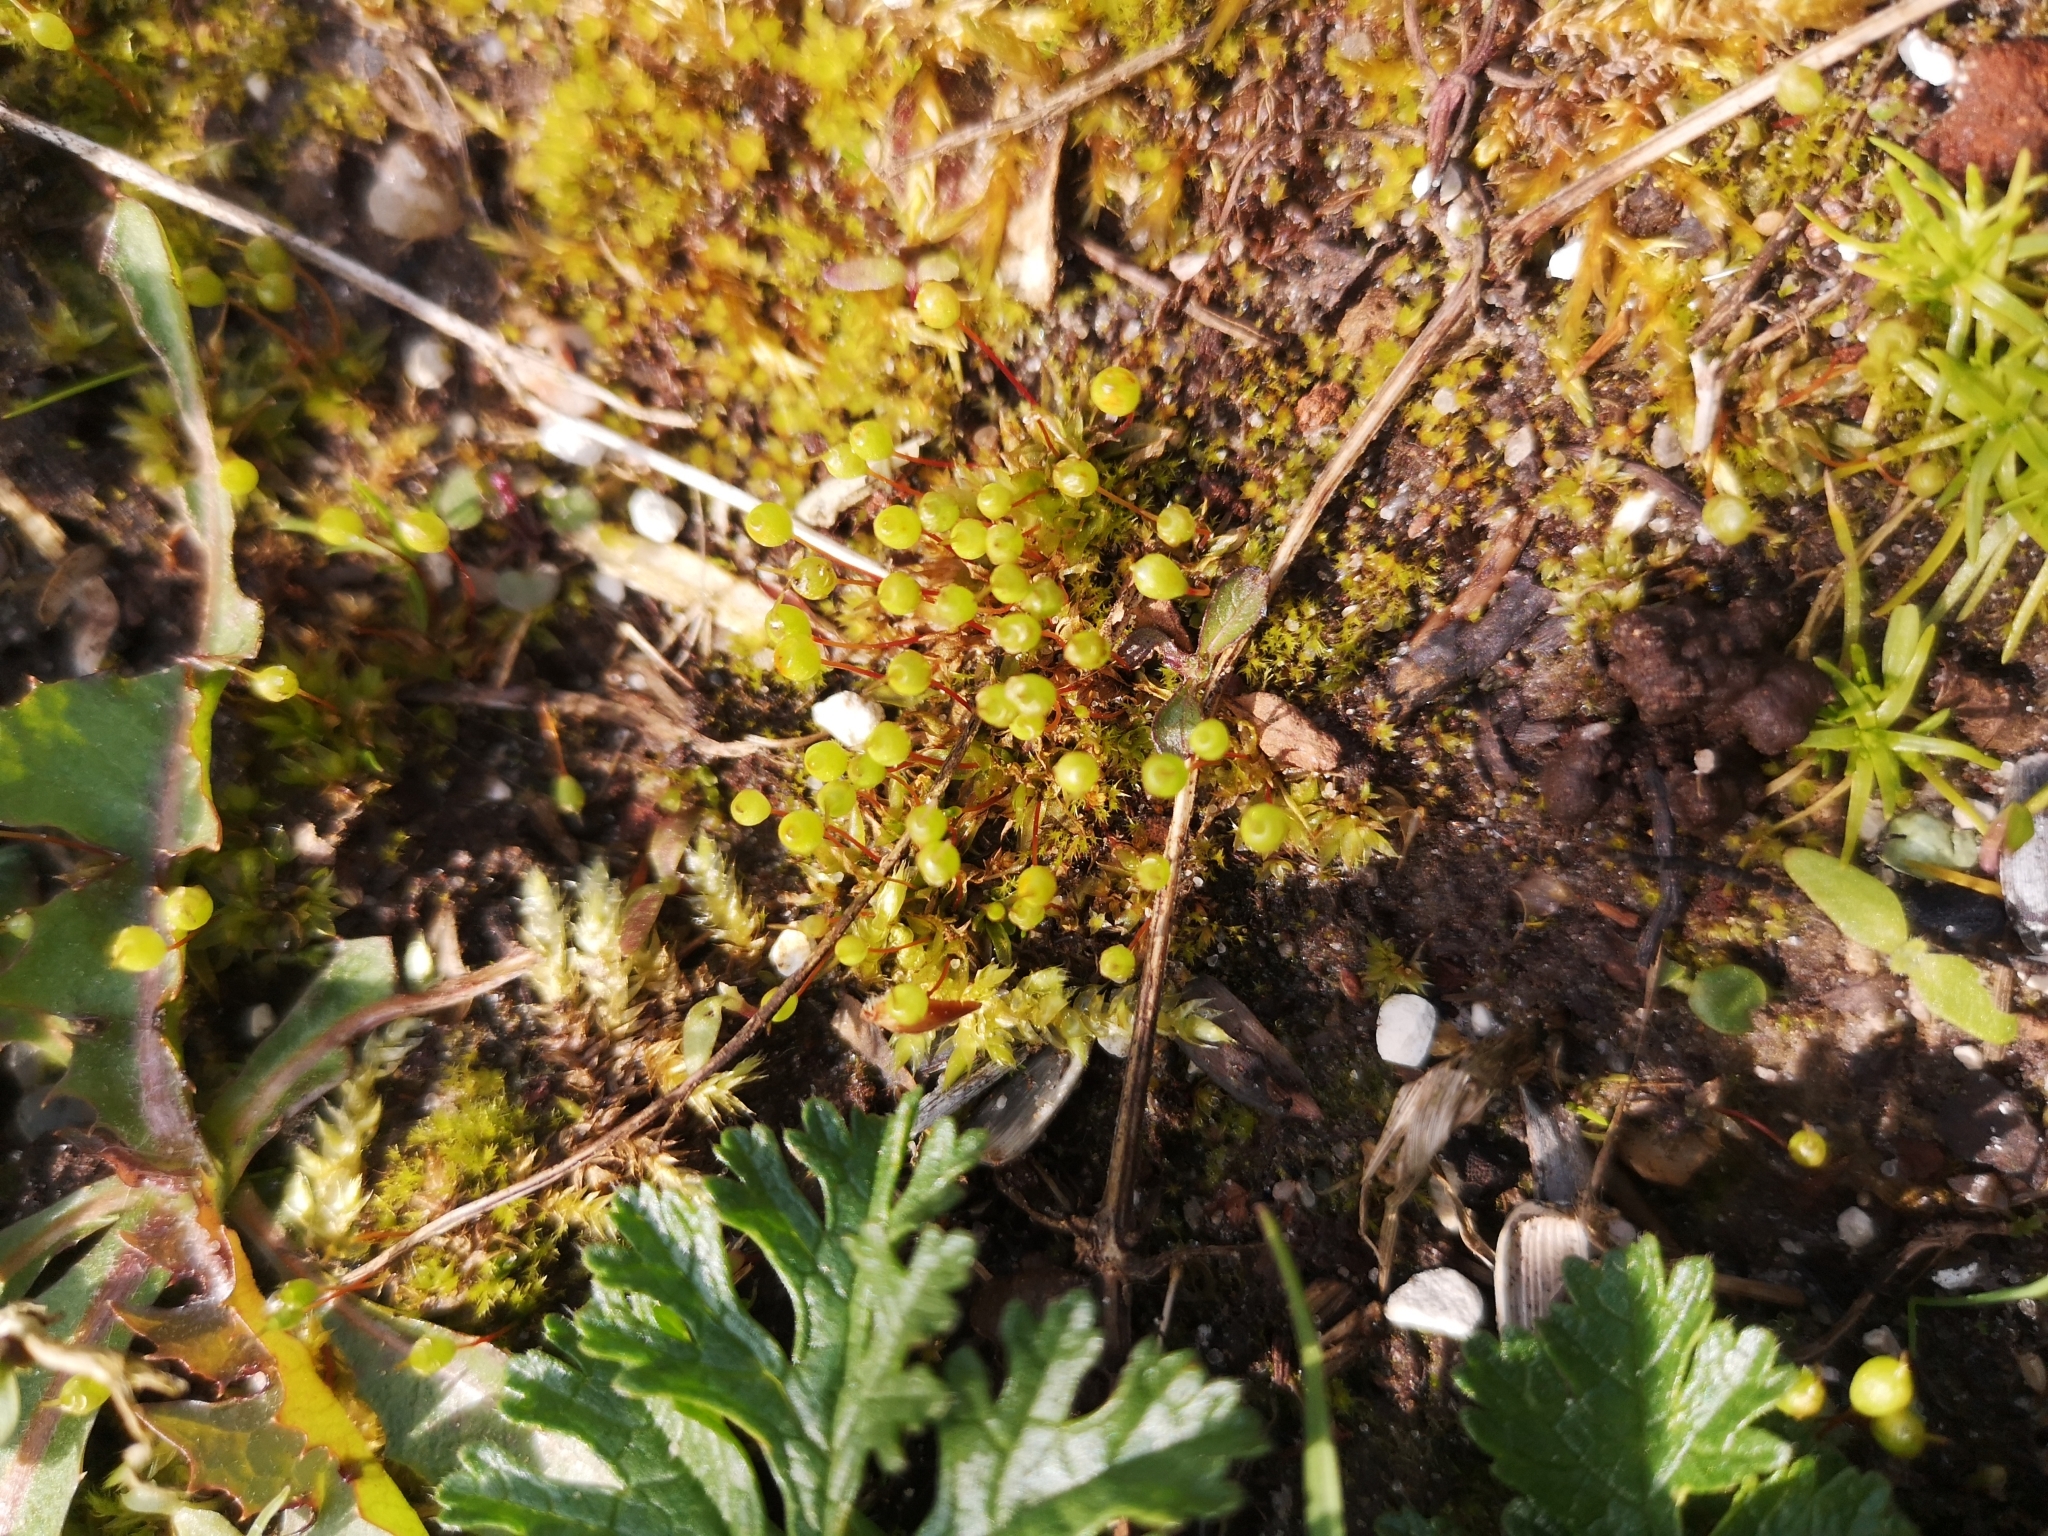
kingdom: Plantae
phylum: Bryophyta
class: Bryopsida
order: Funariales
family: Funariaceae
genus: Physcomitrium
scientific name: Physcomitrium pyriforme
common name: Common bladder-moss
